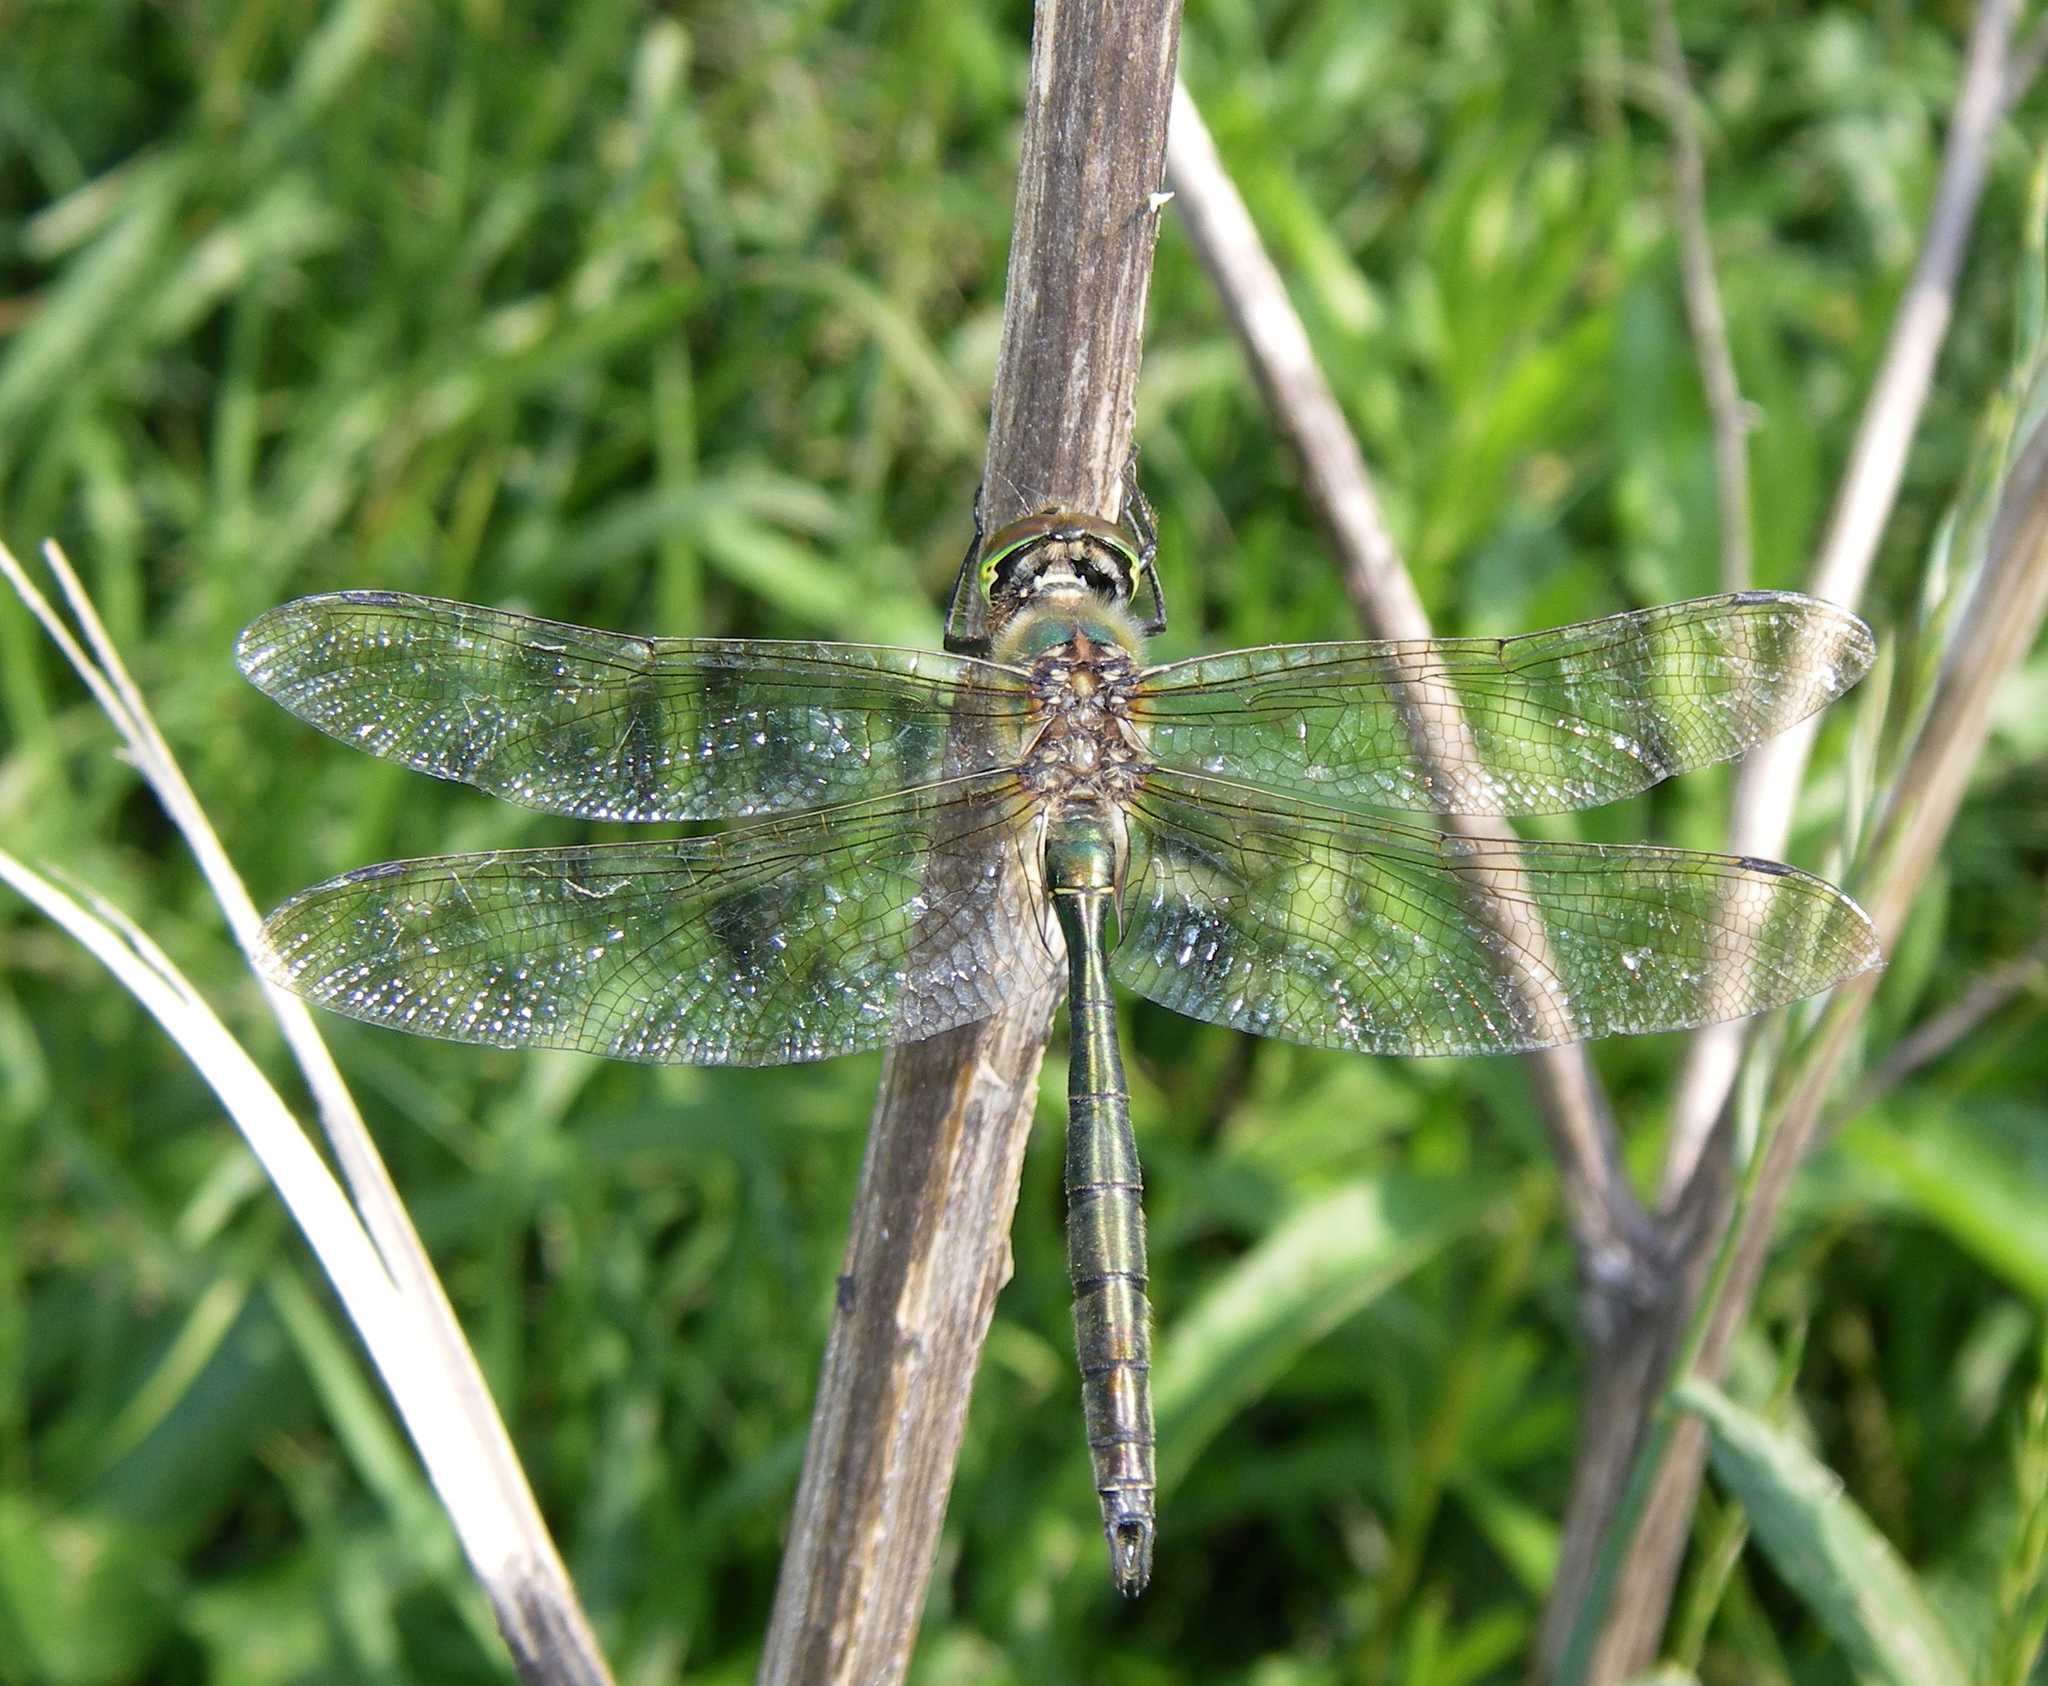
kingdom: Animalia
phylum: Arthropoda
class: Insecta
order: Odonata
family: Corduliidae
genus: Somatochlora
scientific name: Somatochlora metallica
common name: Brilliant emerald
